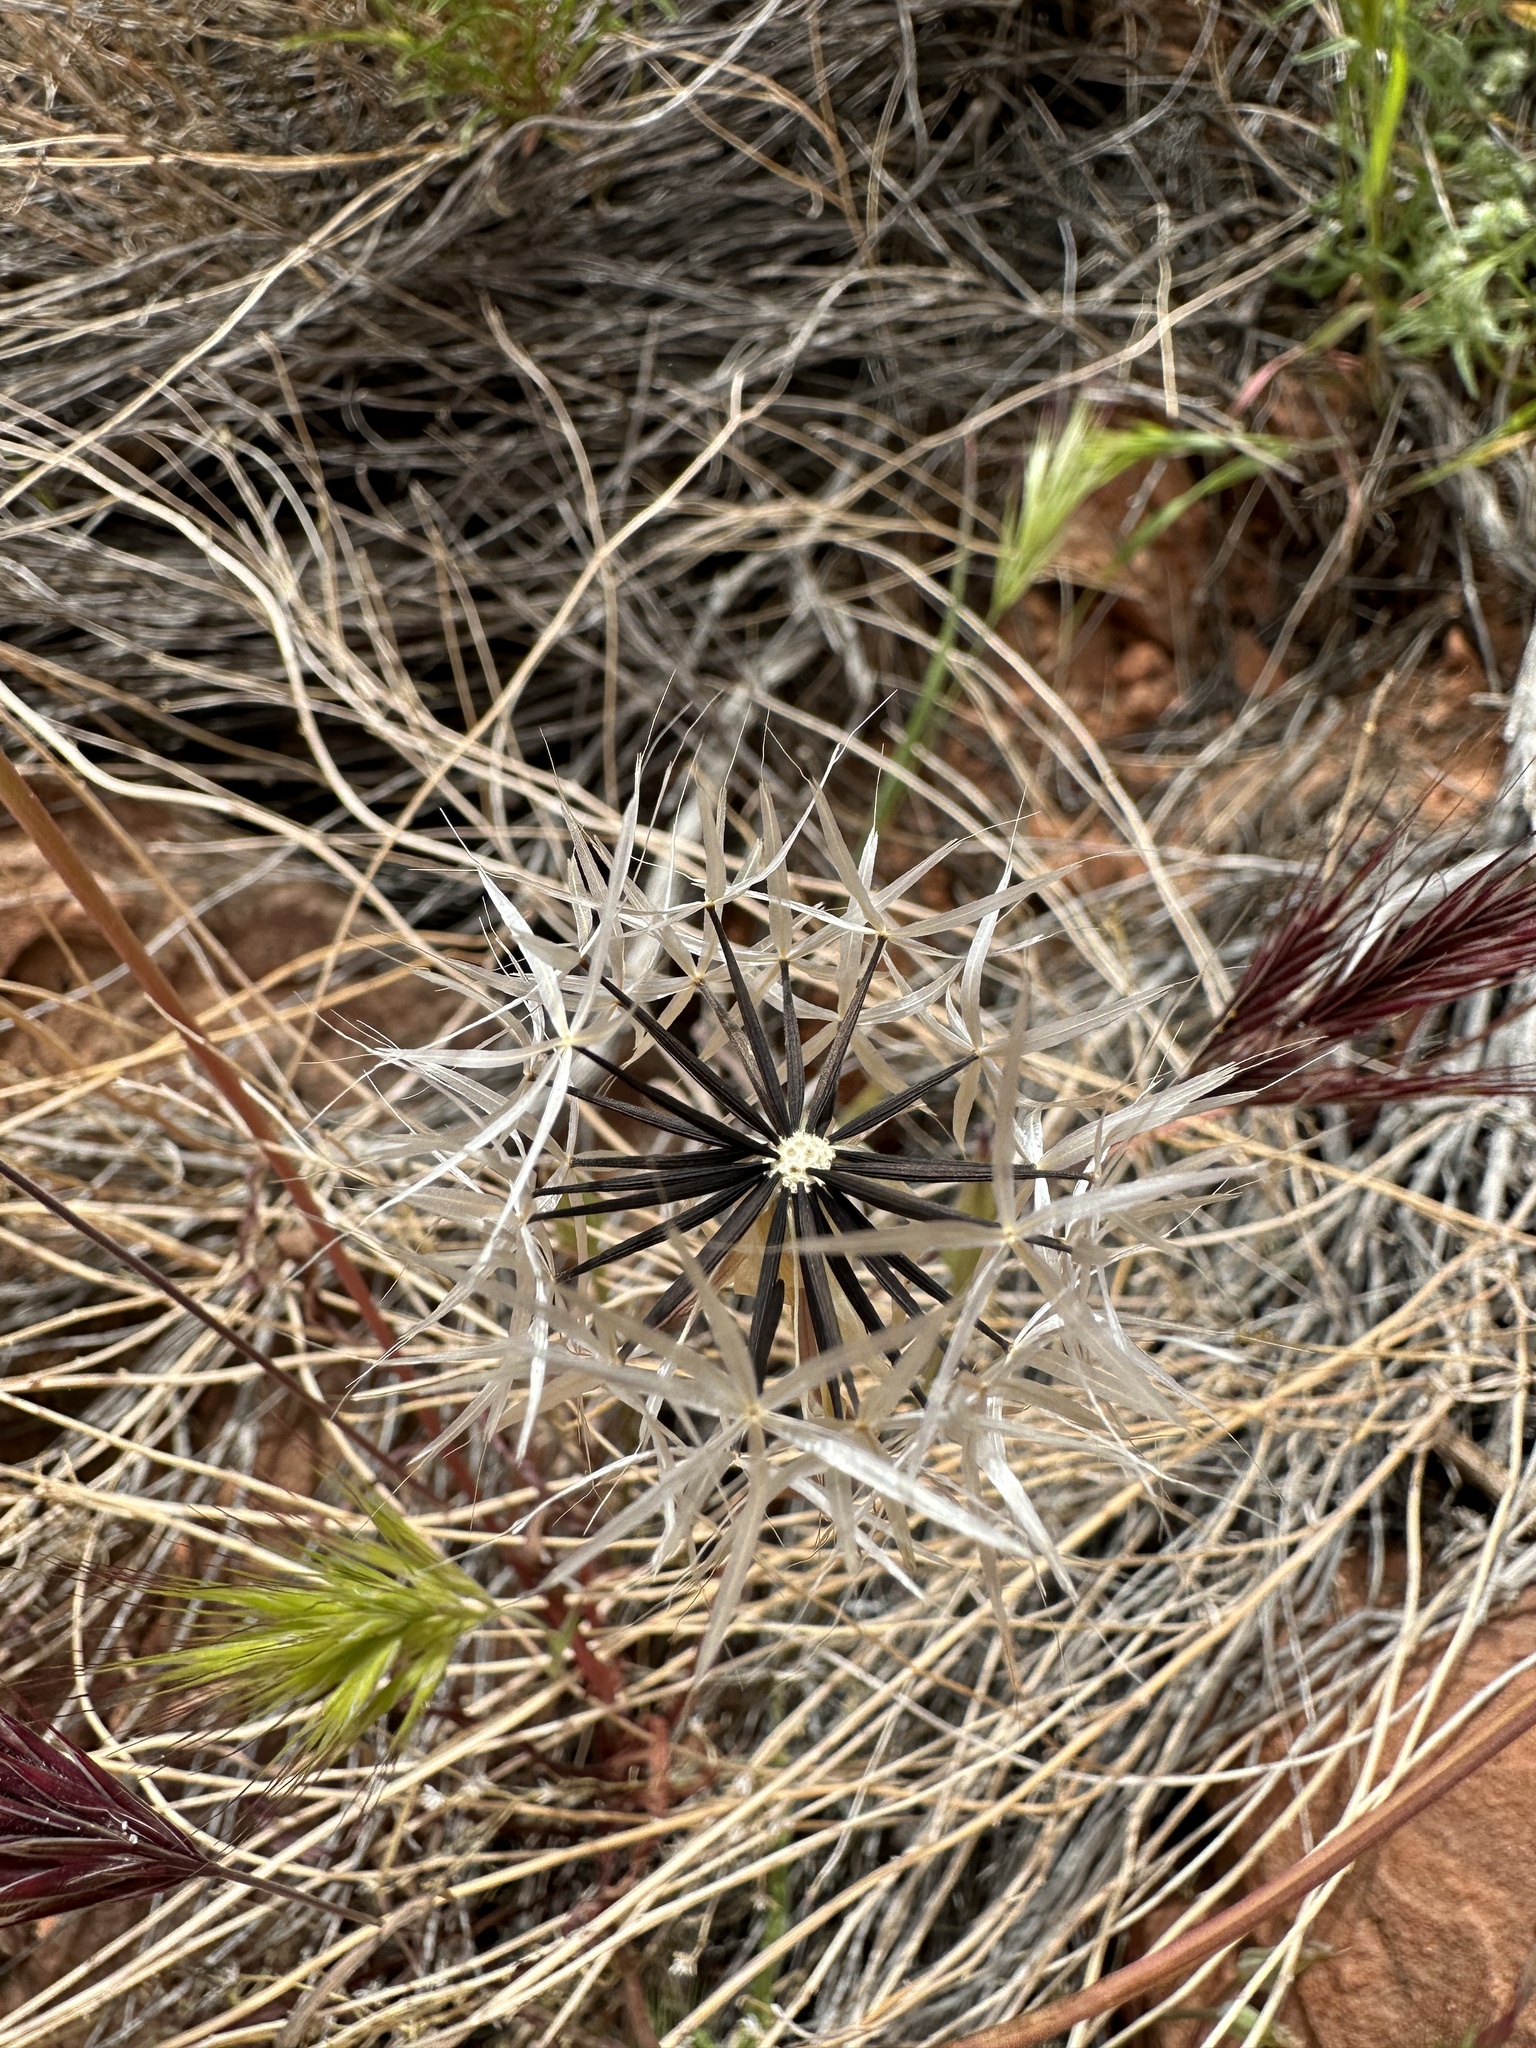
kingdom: Plantae
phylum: Tracheophyta
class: Magnoliopsida
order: Asterales
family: Asteraceae
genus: Microseris
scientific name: Microseris lindleyi
